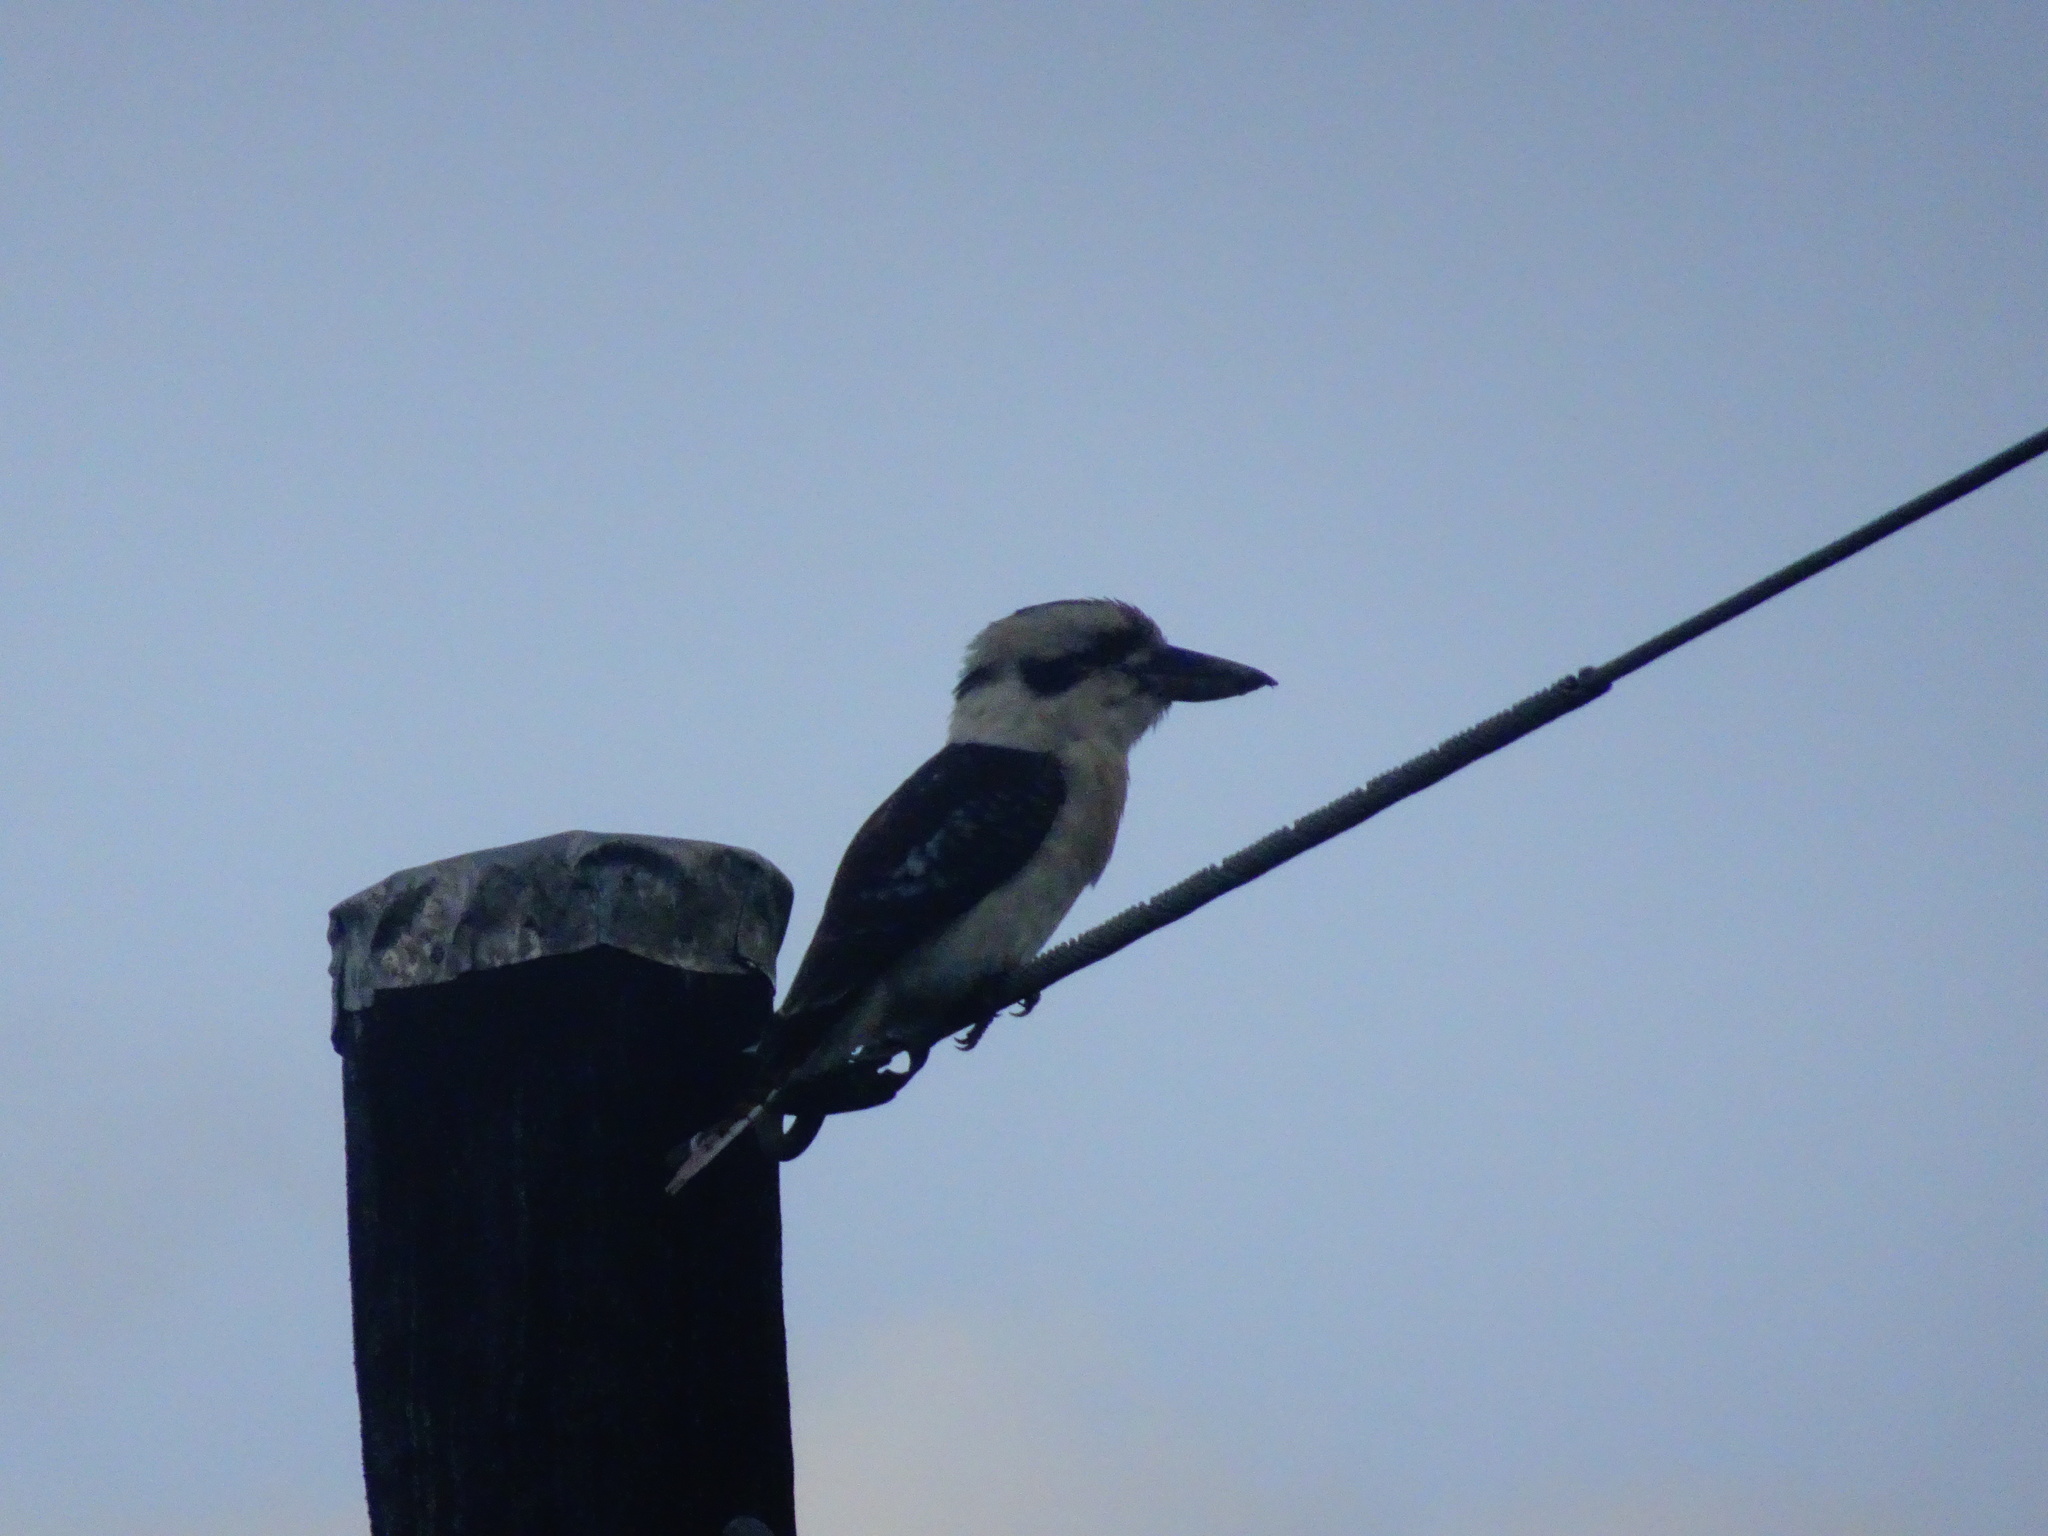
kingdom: Animalia
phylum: Chordata
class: Aves
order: Coraciiformes
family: Alcedinidae
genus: Dacelo
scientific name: Dacelo novaeguineae
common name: Laughing kookaburra
